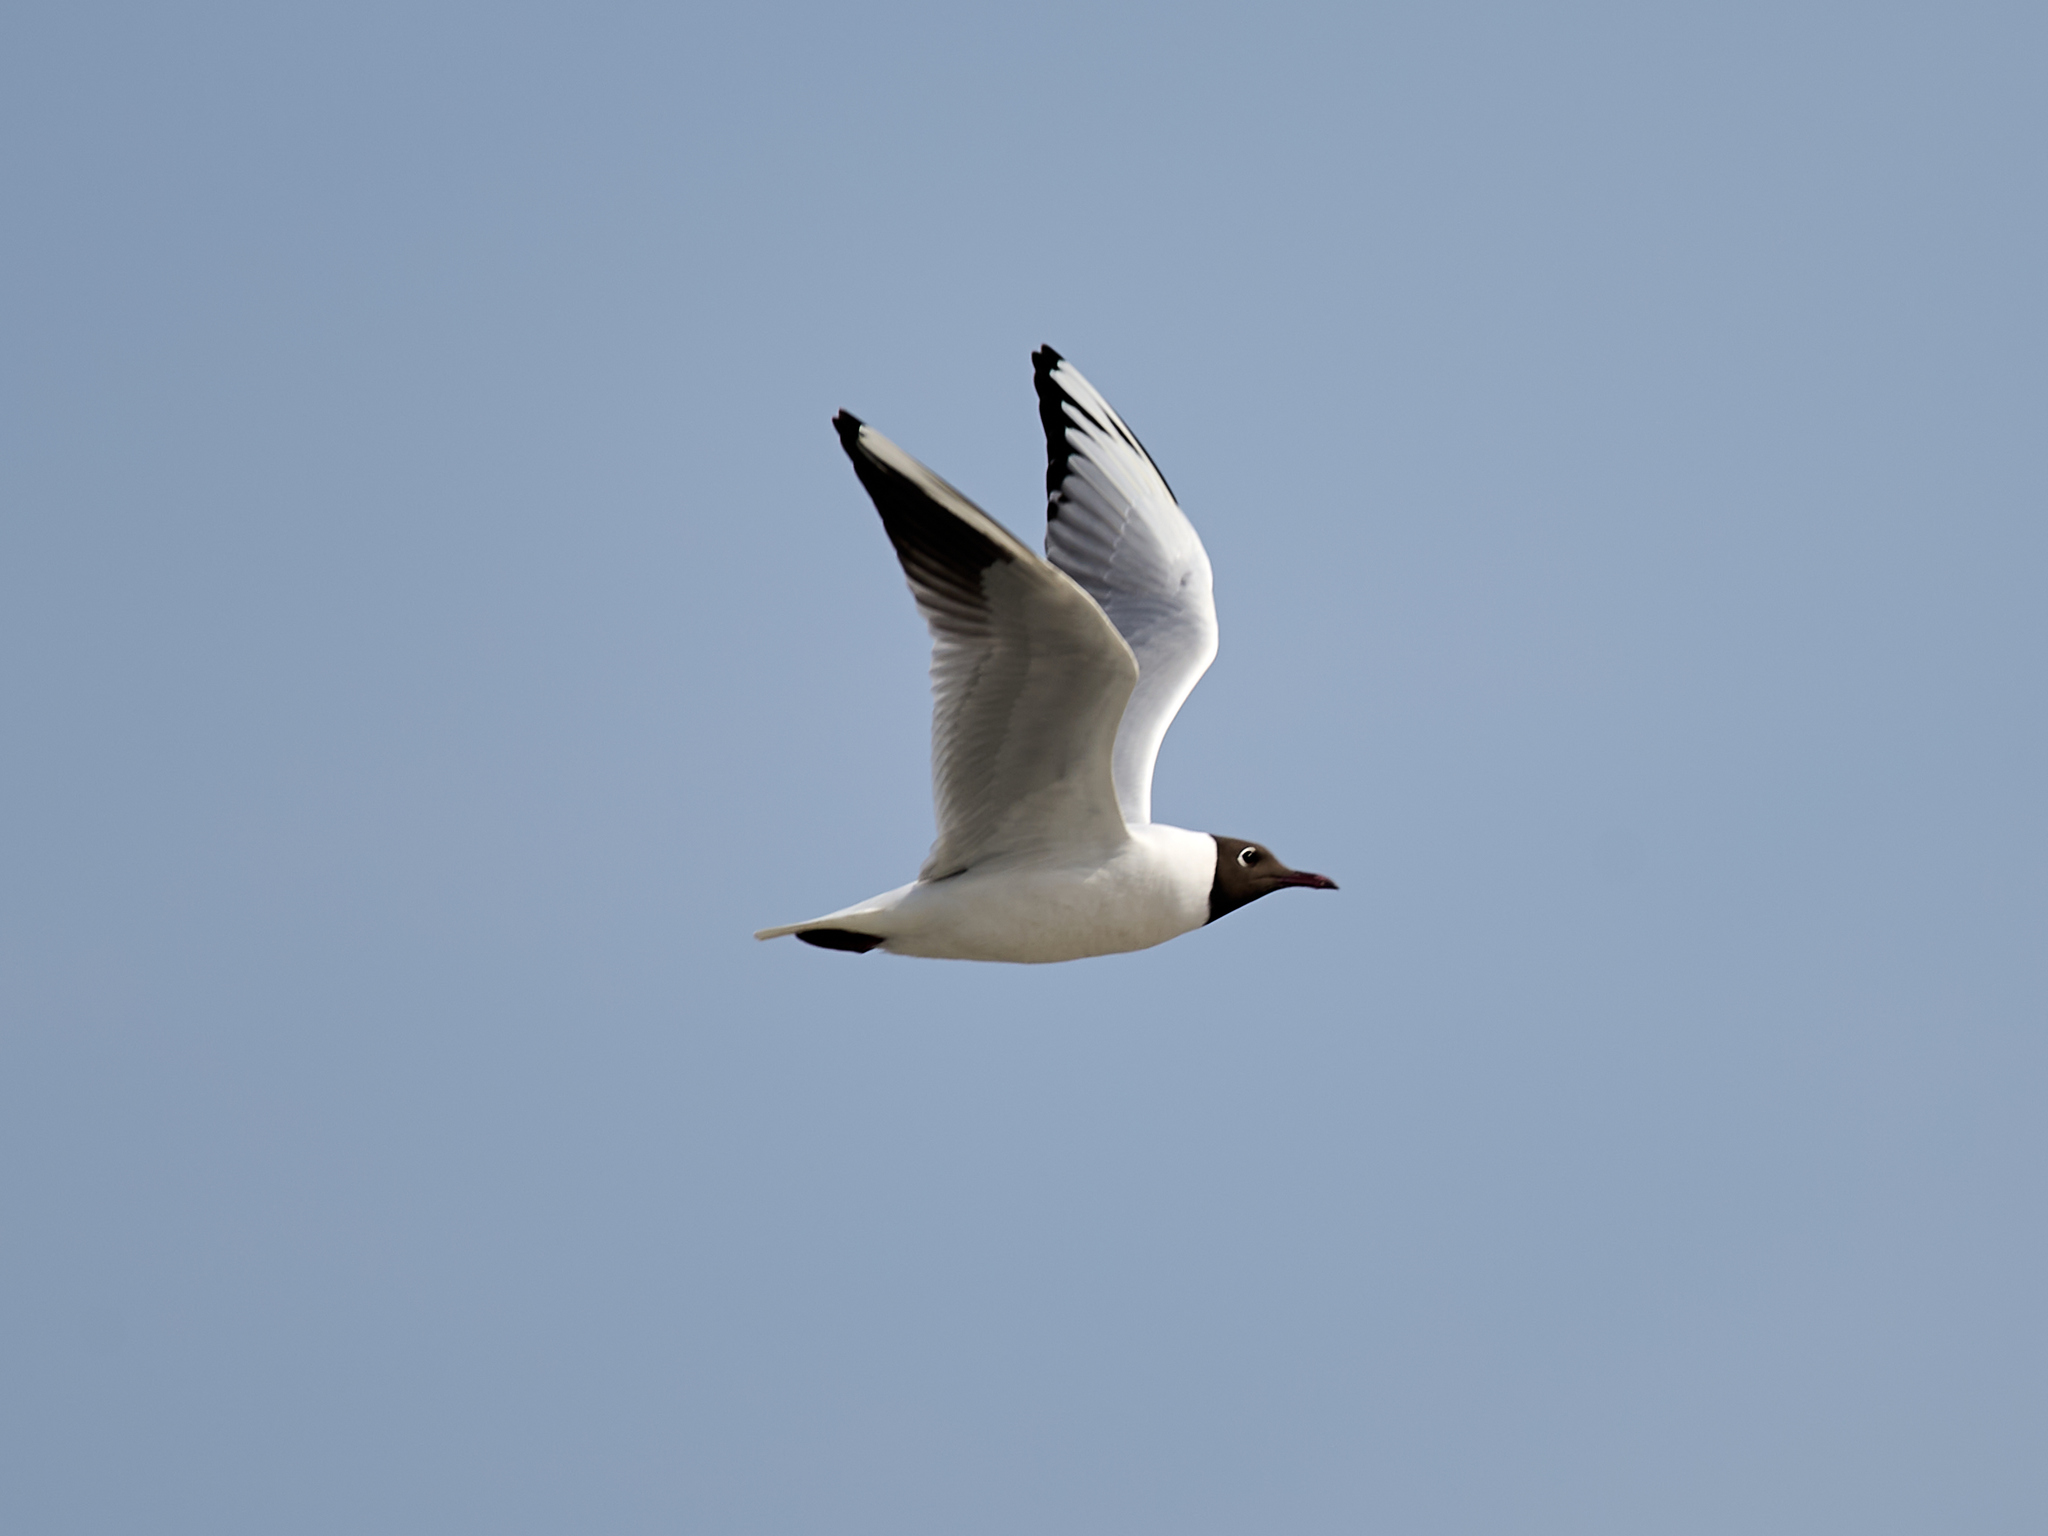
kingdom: Animalia
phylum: Chordata
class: Aves
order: Charadriiformes
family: Laridae
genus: Chroicocephalus
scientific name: Chroicocephalus ridibundus
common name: Black-headed gull
